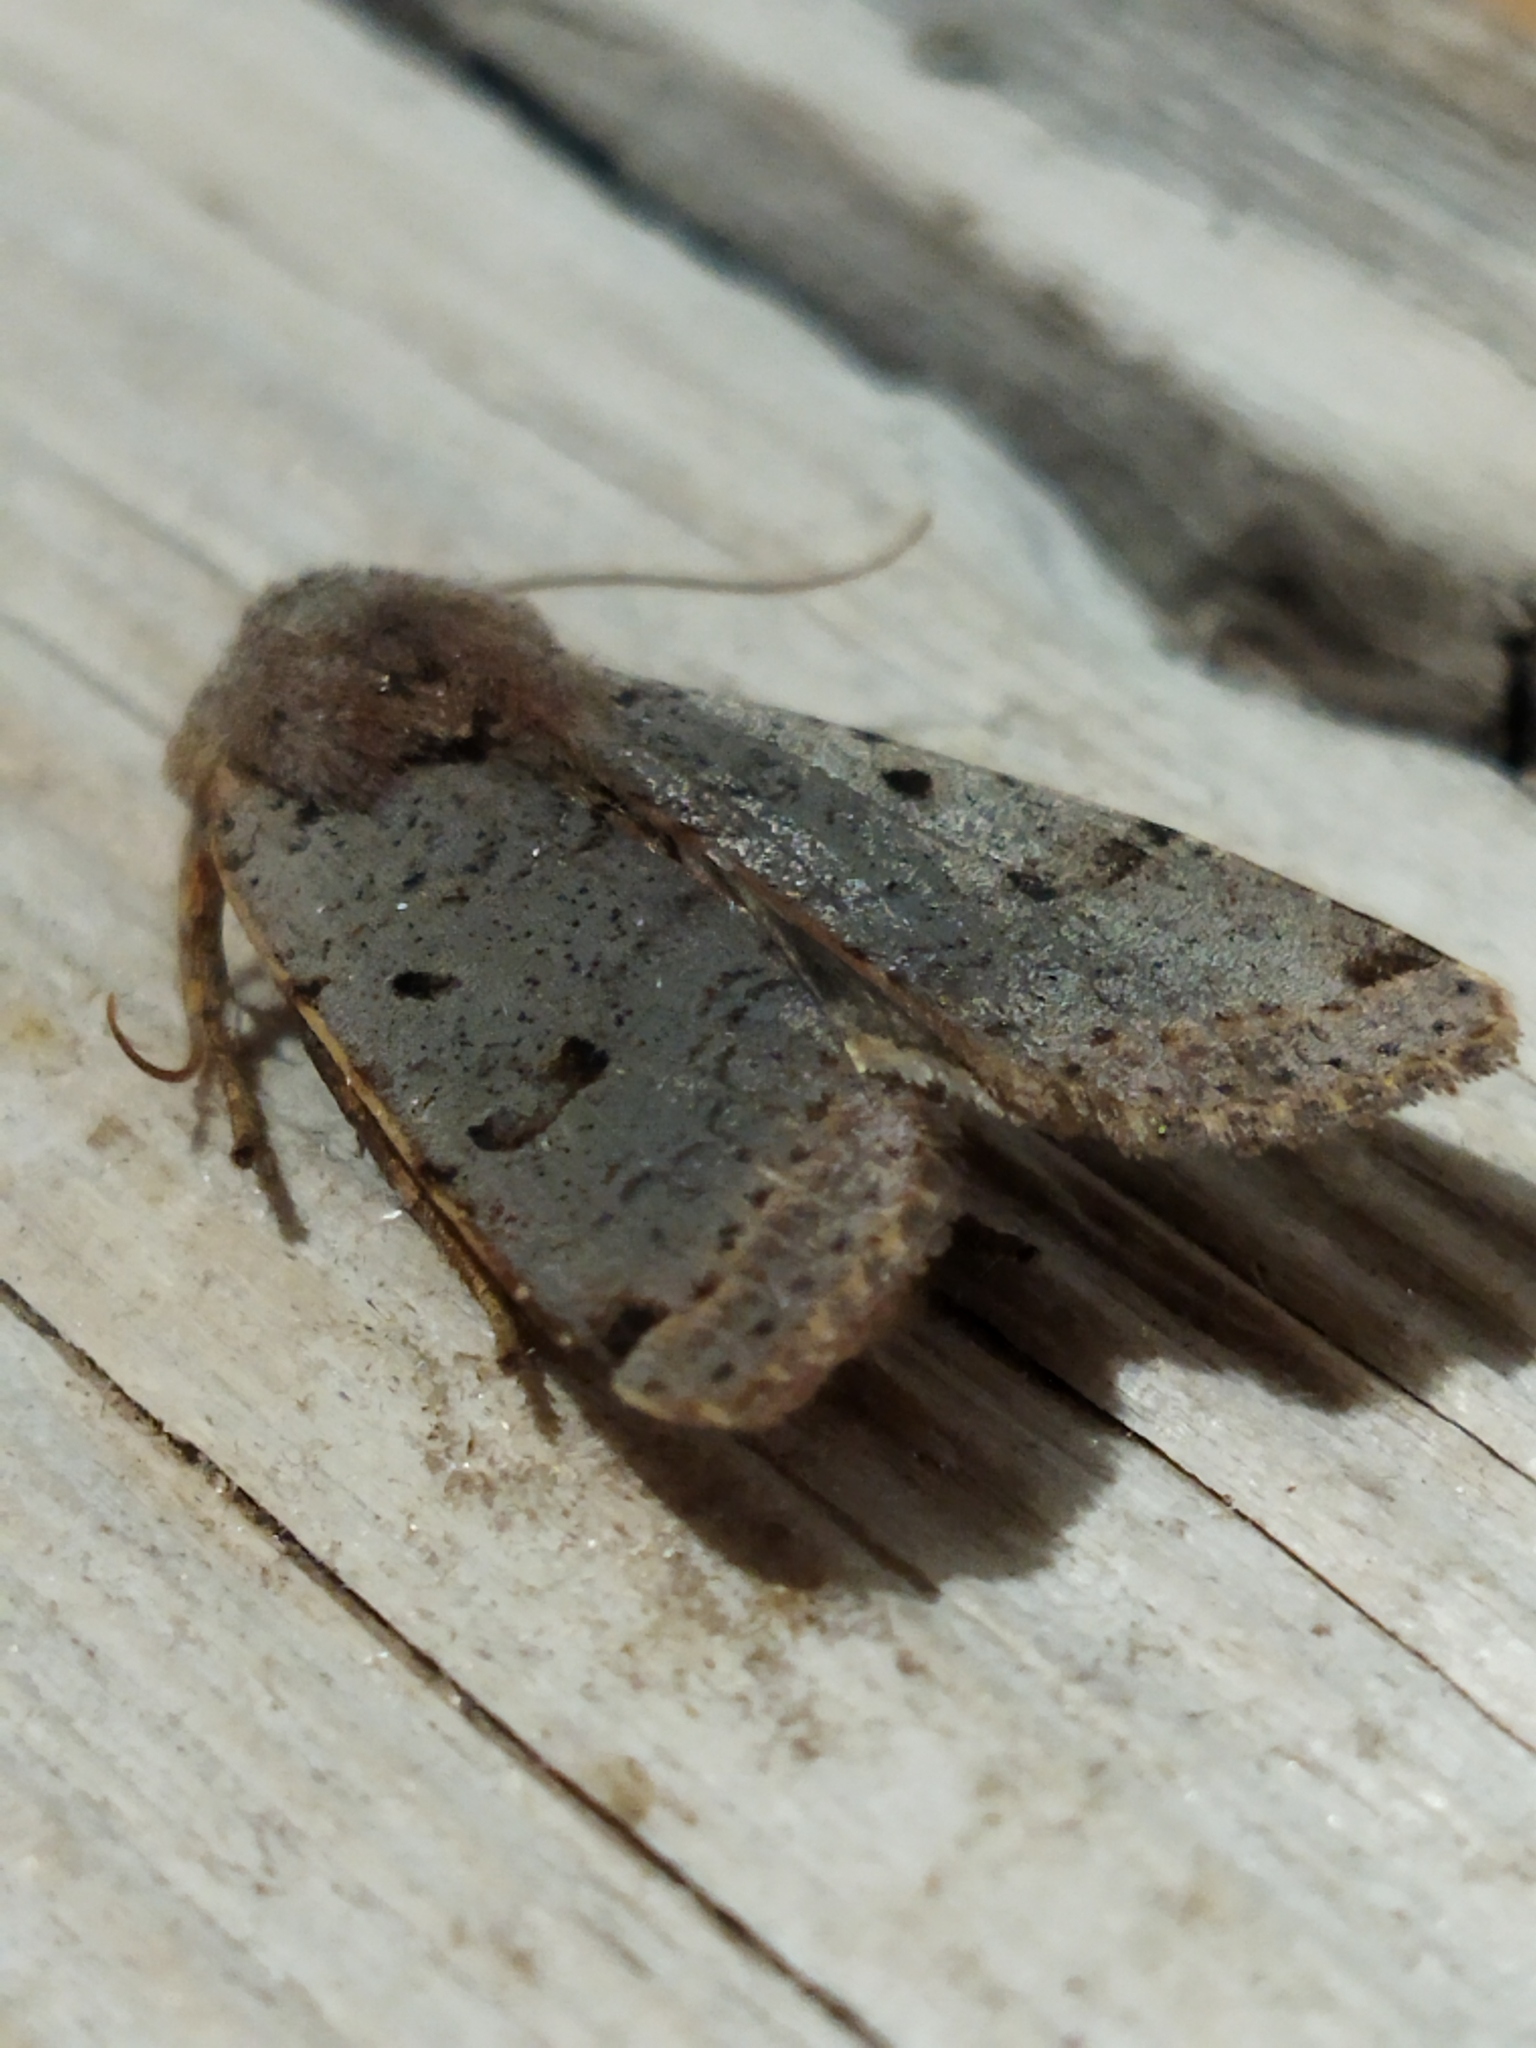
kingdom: Animalia
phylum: Arthropoda
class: Insecta
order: Lepidoptera
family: Noctuidae
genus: Agrochola
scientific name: Agrochola lychnidis
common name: Beaded chestnut
